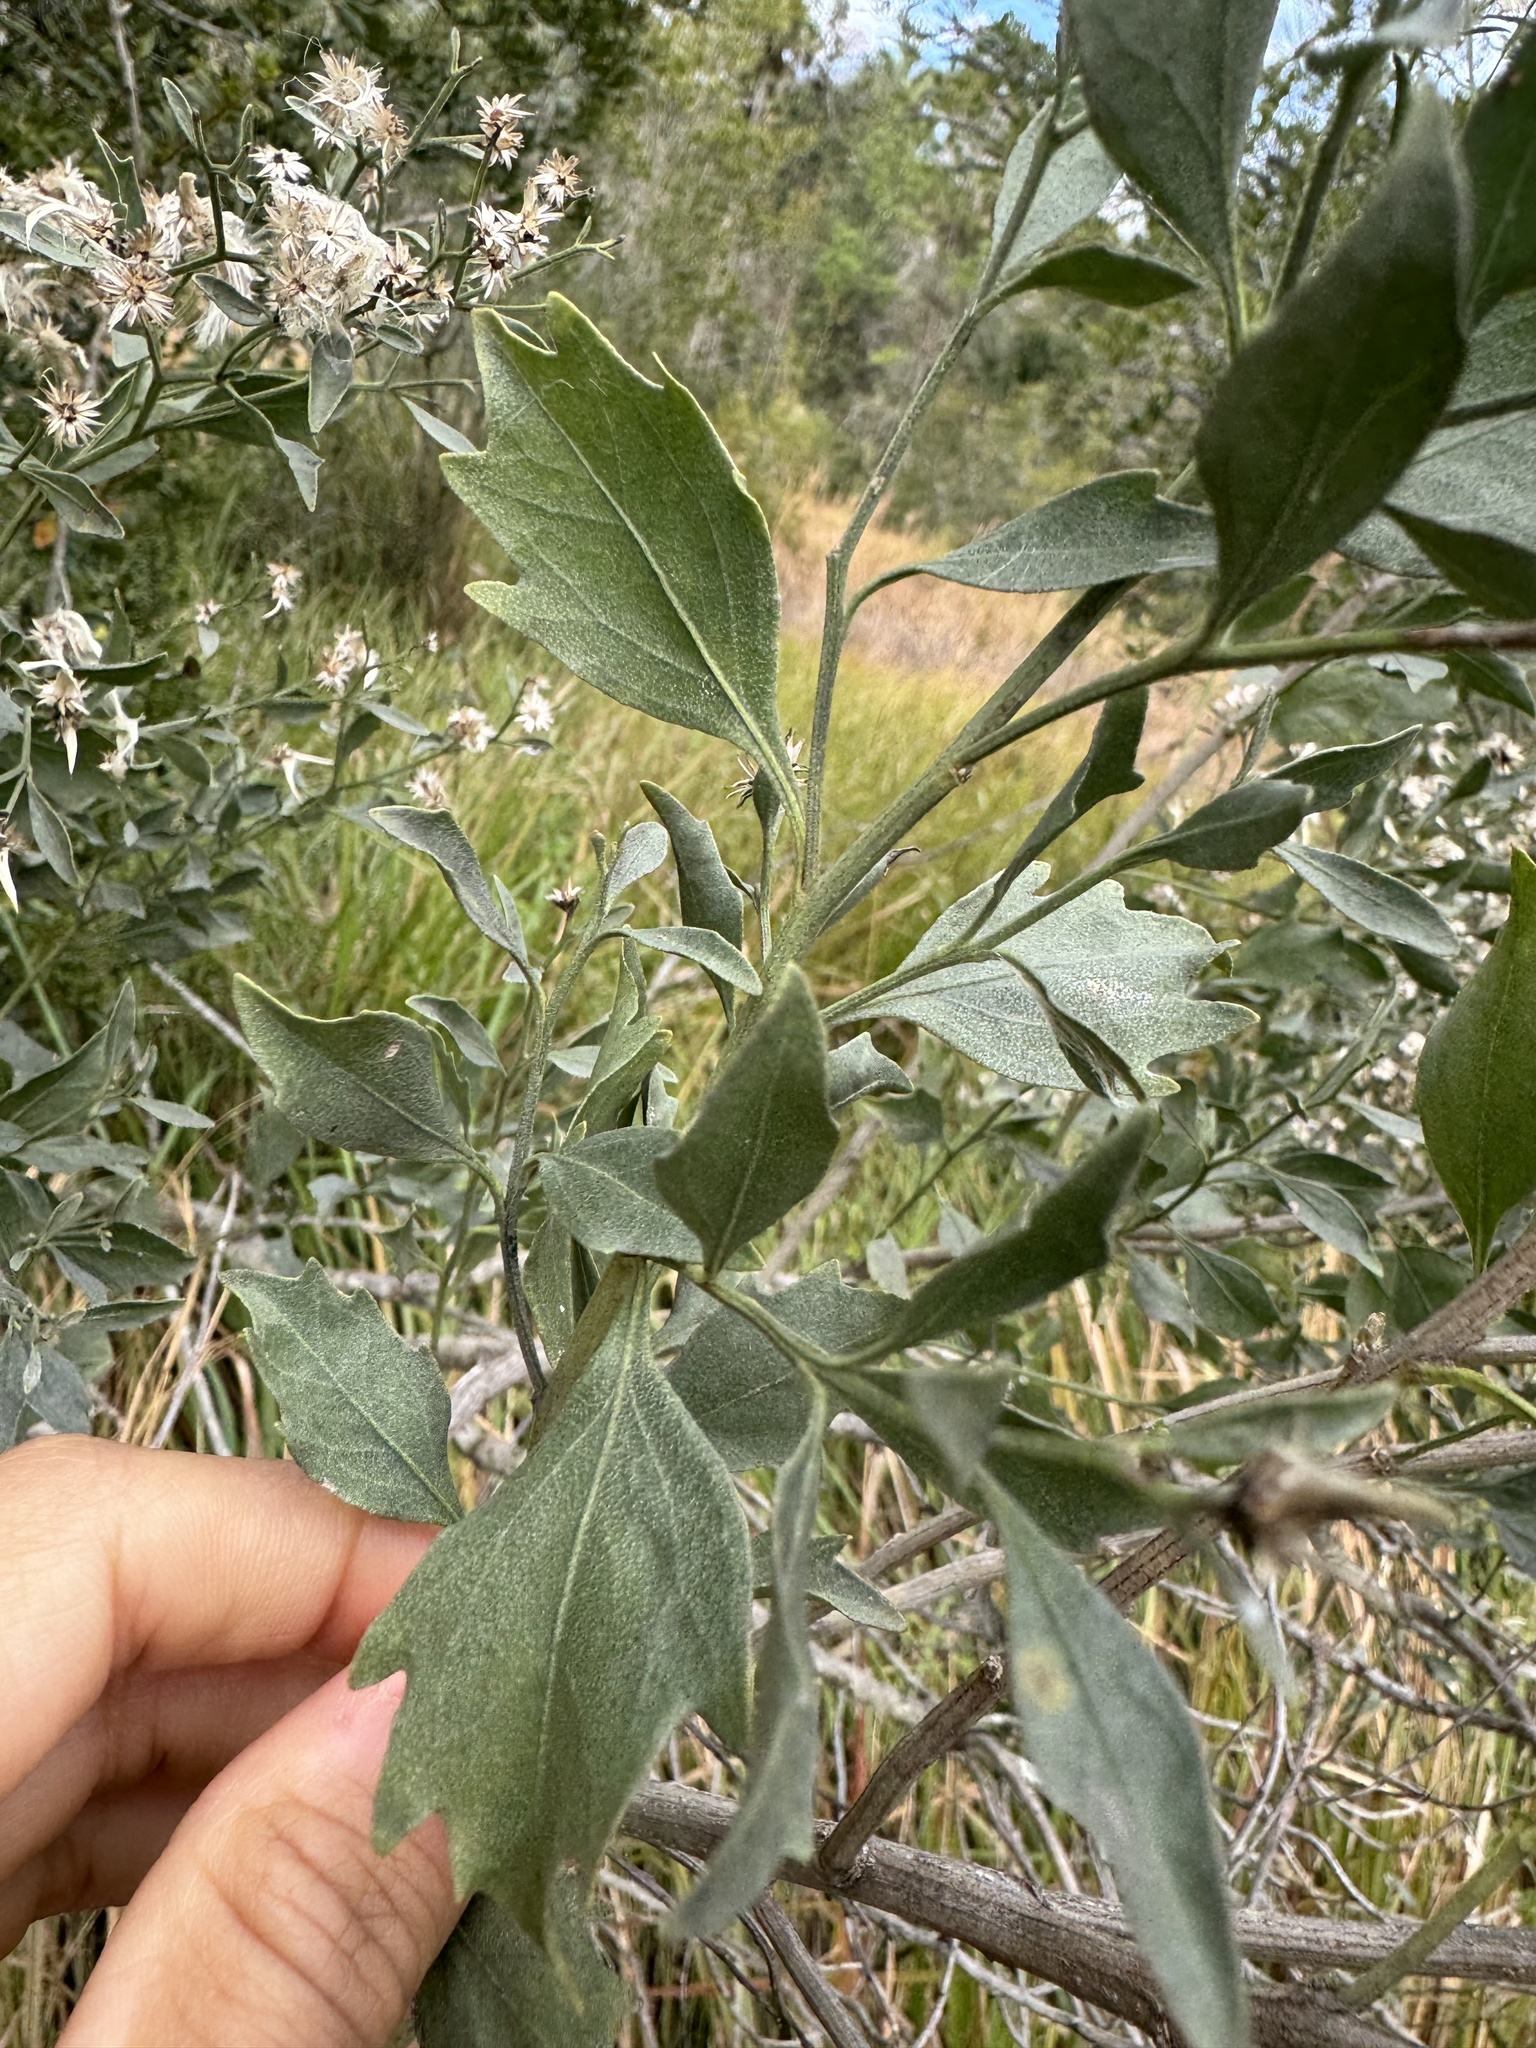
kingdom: Plantae
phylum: Tracheophyta
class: Magnoliopsida
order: Asterales
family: Asteraceae
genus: Baccharis
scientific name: Baccharis halimifolia
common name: Eastern baccharis
